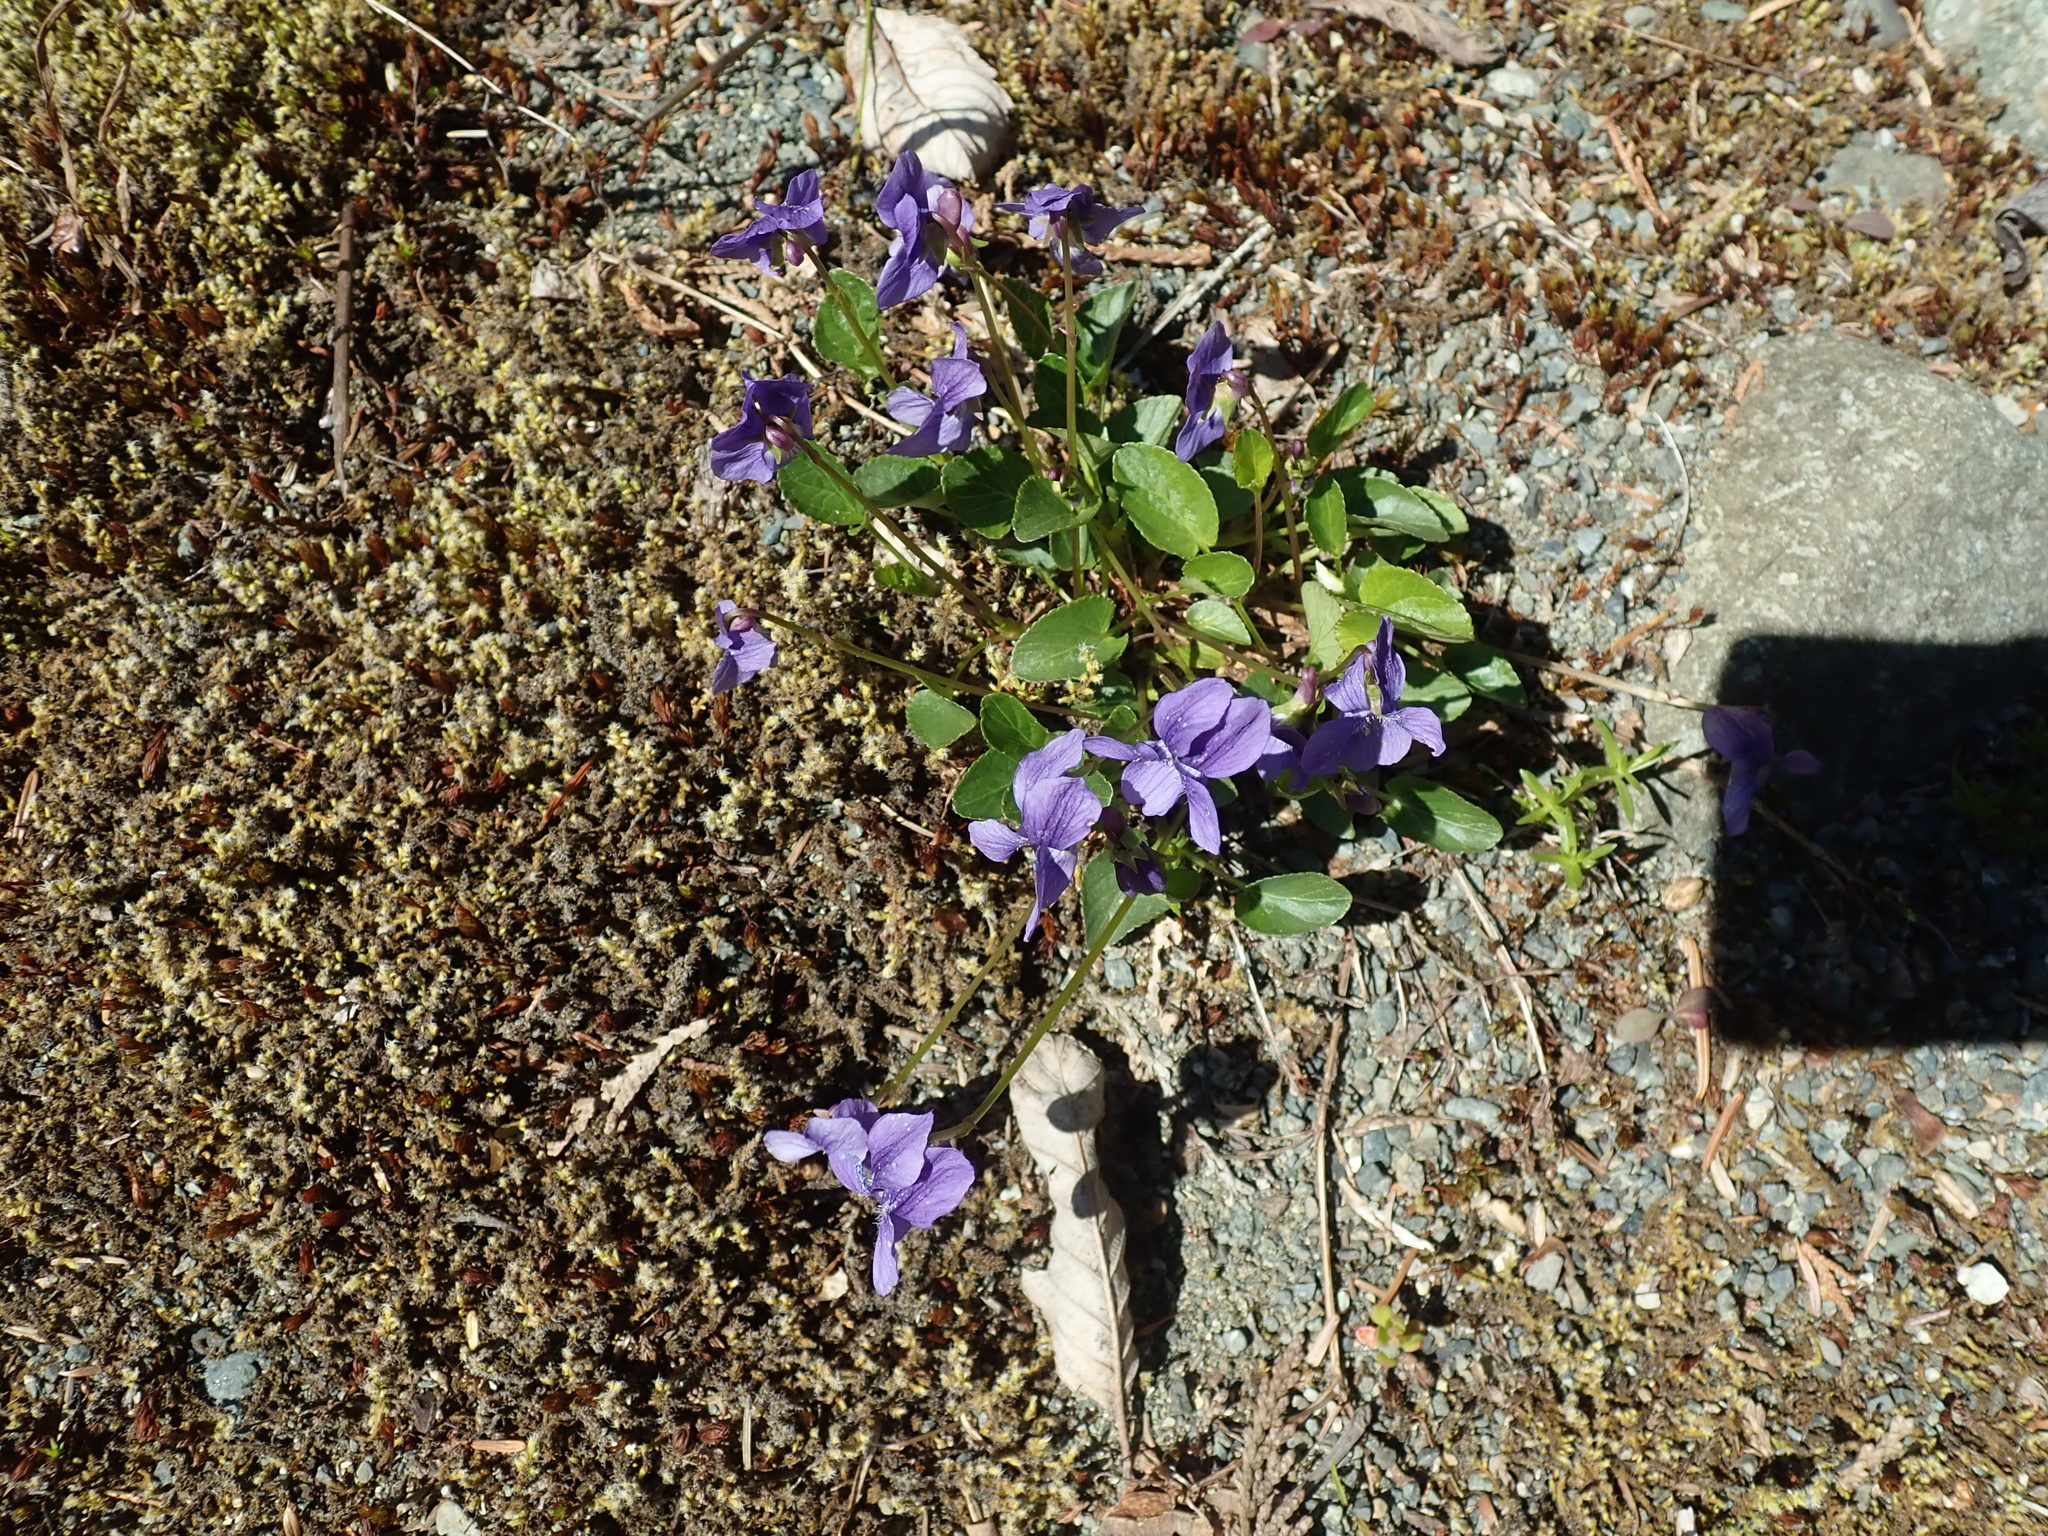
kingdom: Plantae
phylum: Tracheophyta
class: Magnoliopsida
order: Malpighiales
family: Violaceae
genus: Viola
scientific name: Viola adunca
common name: Sand violet
